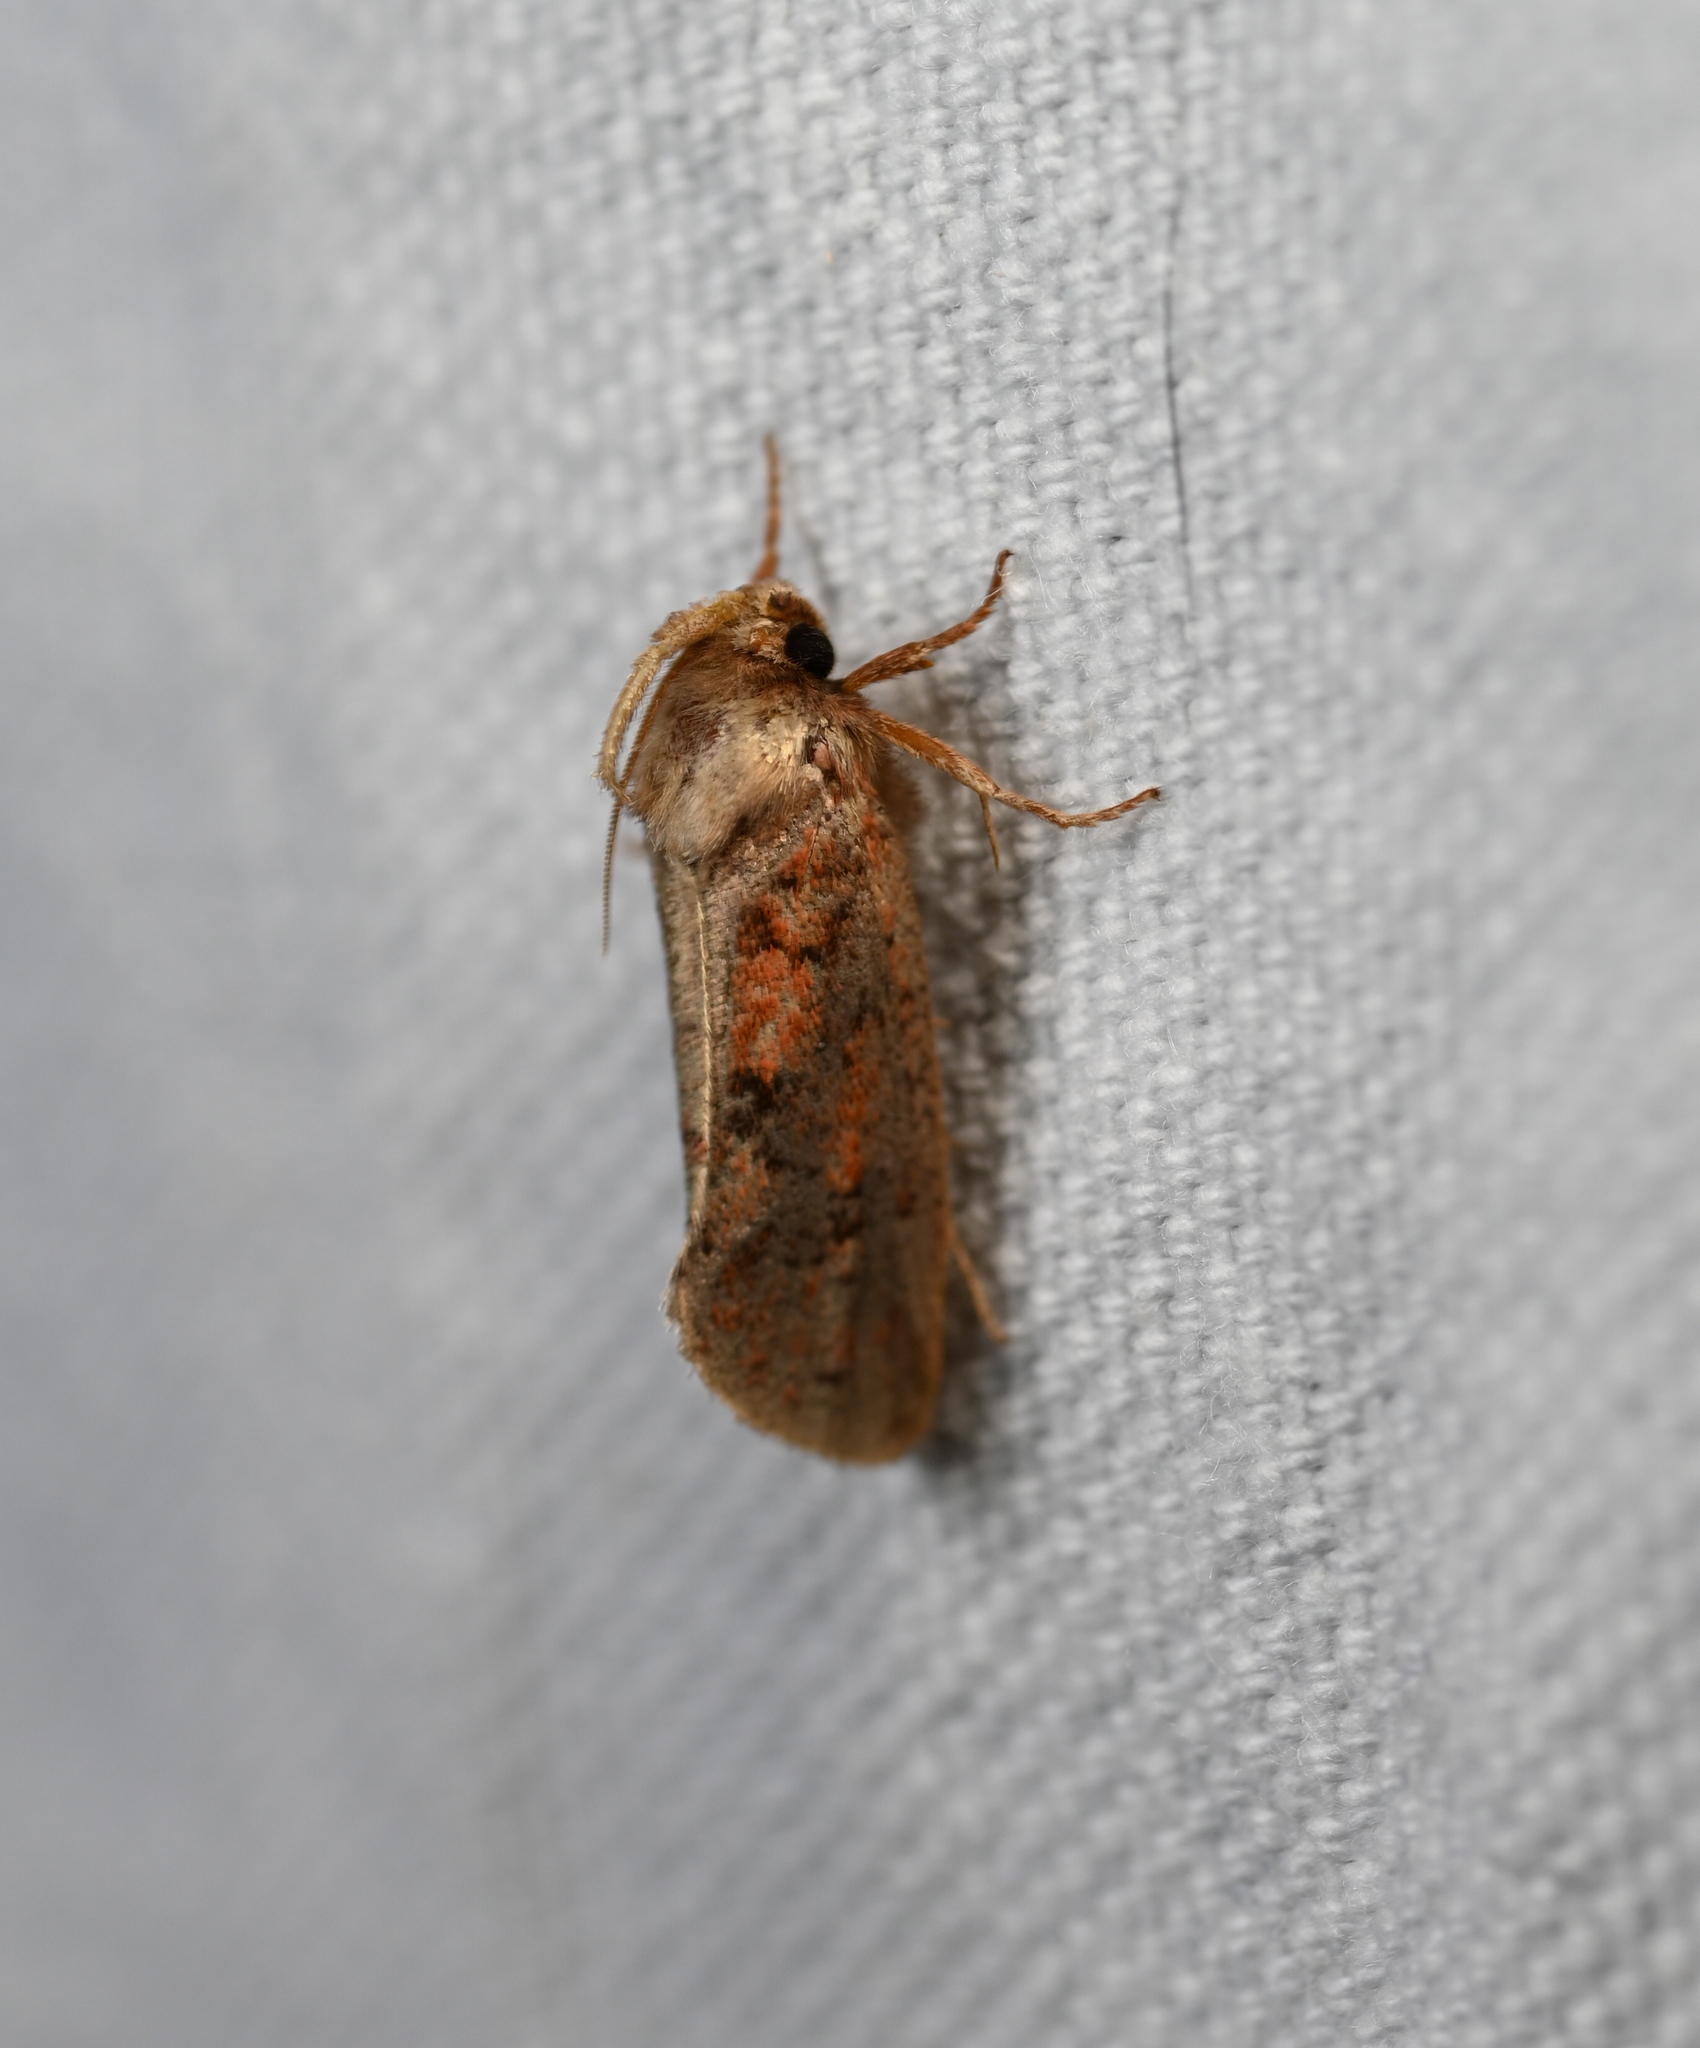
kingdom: Animalia
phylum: Arthropoda
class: Insecta
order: Lepidoptera
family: Tineidae
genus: Acrolophus
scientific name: Acrolophus plumifrontella
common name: Eastern grass tubeworm moth
